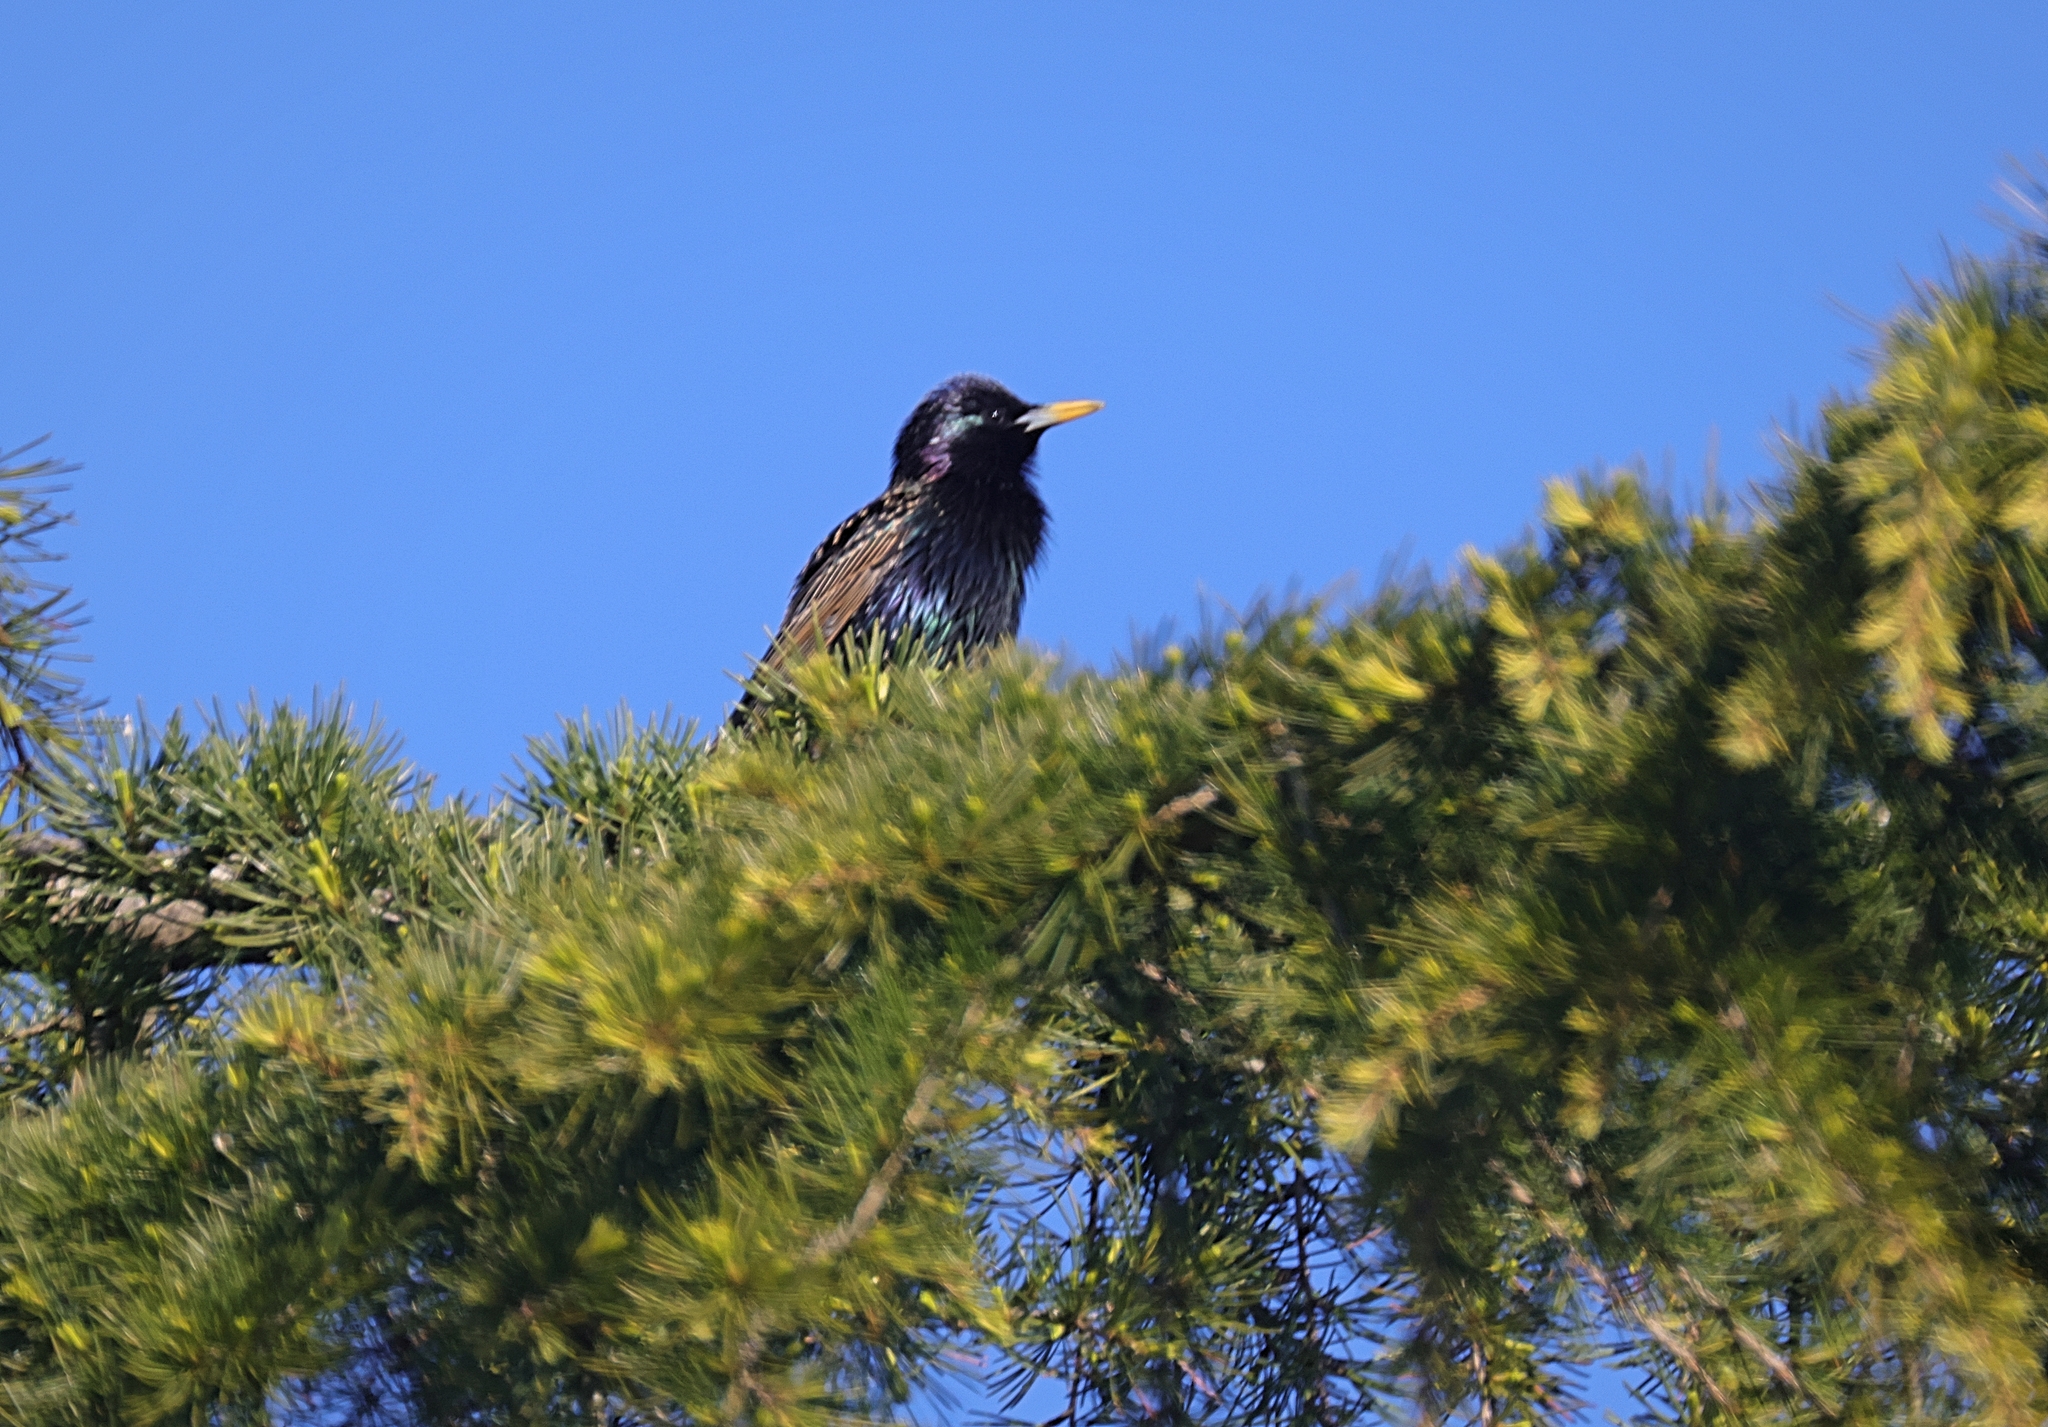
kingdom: Animalia
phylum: Chordata
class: Aves
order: Passeriformes
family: Sturnidae
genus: Sturnus
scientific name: Sturnus vulgaris
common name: Common starling
